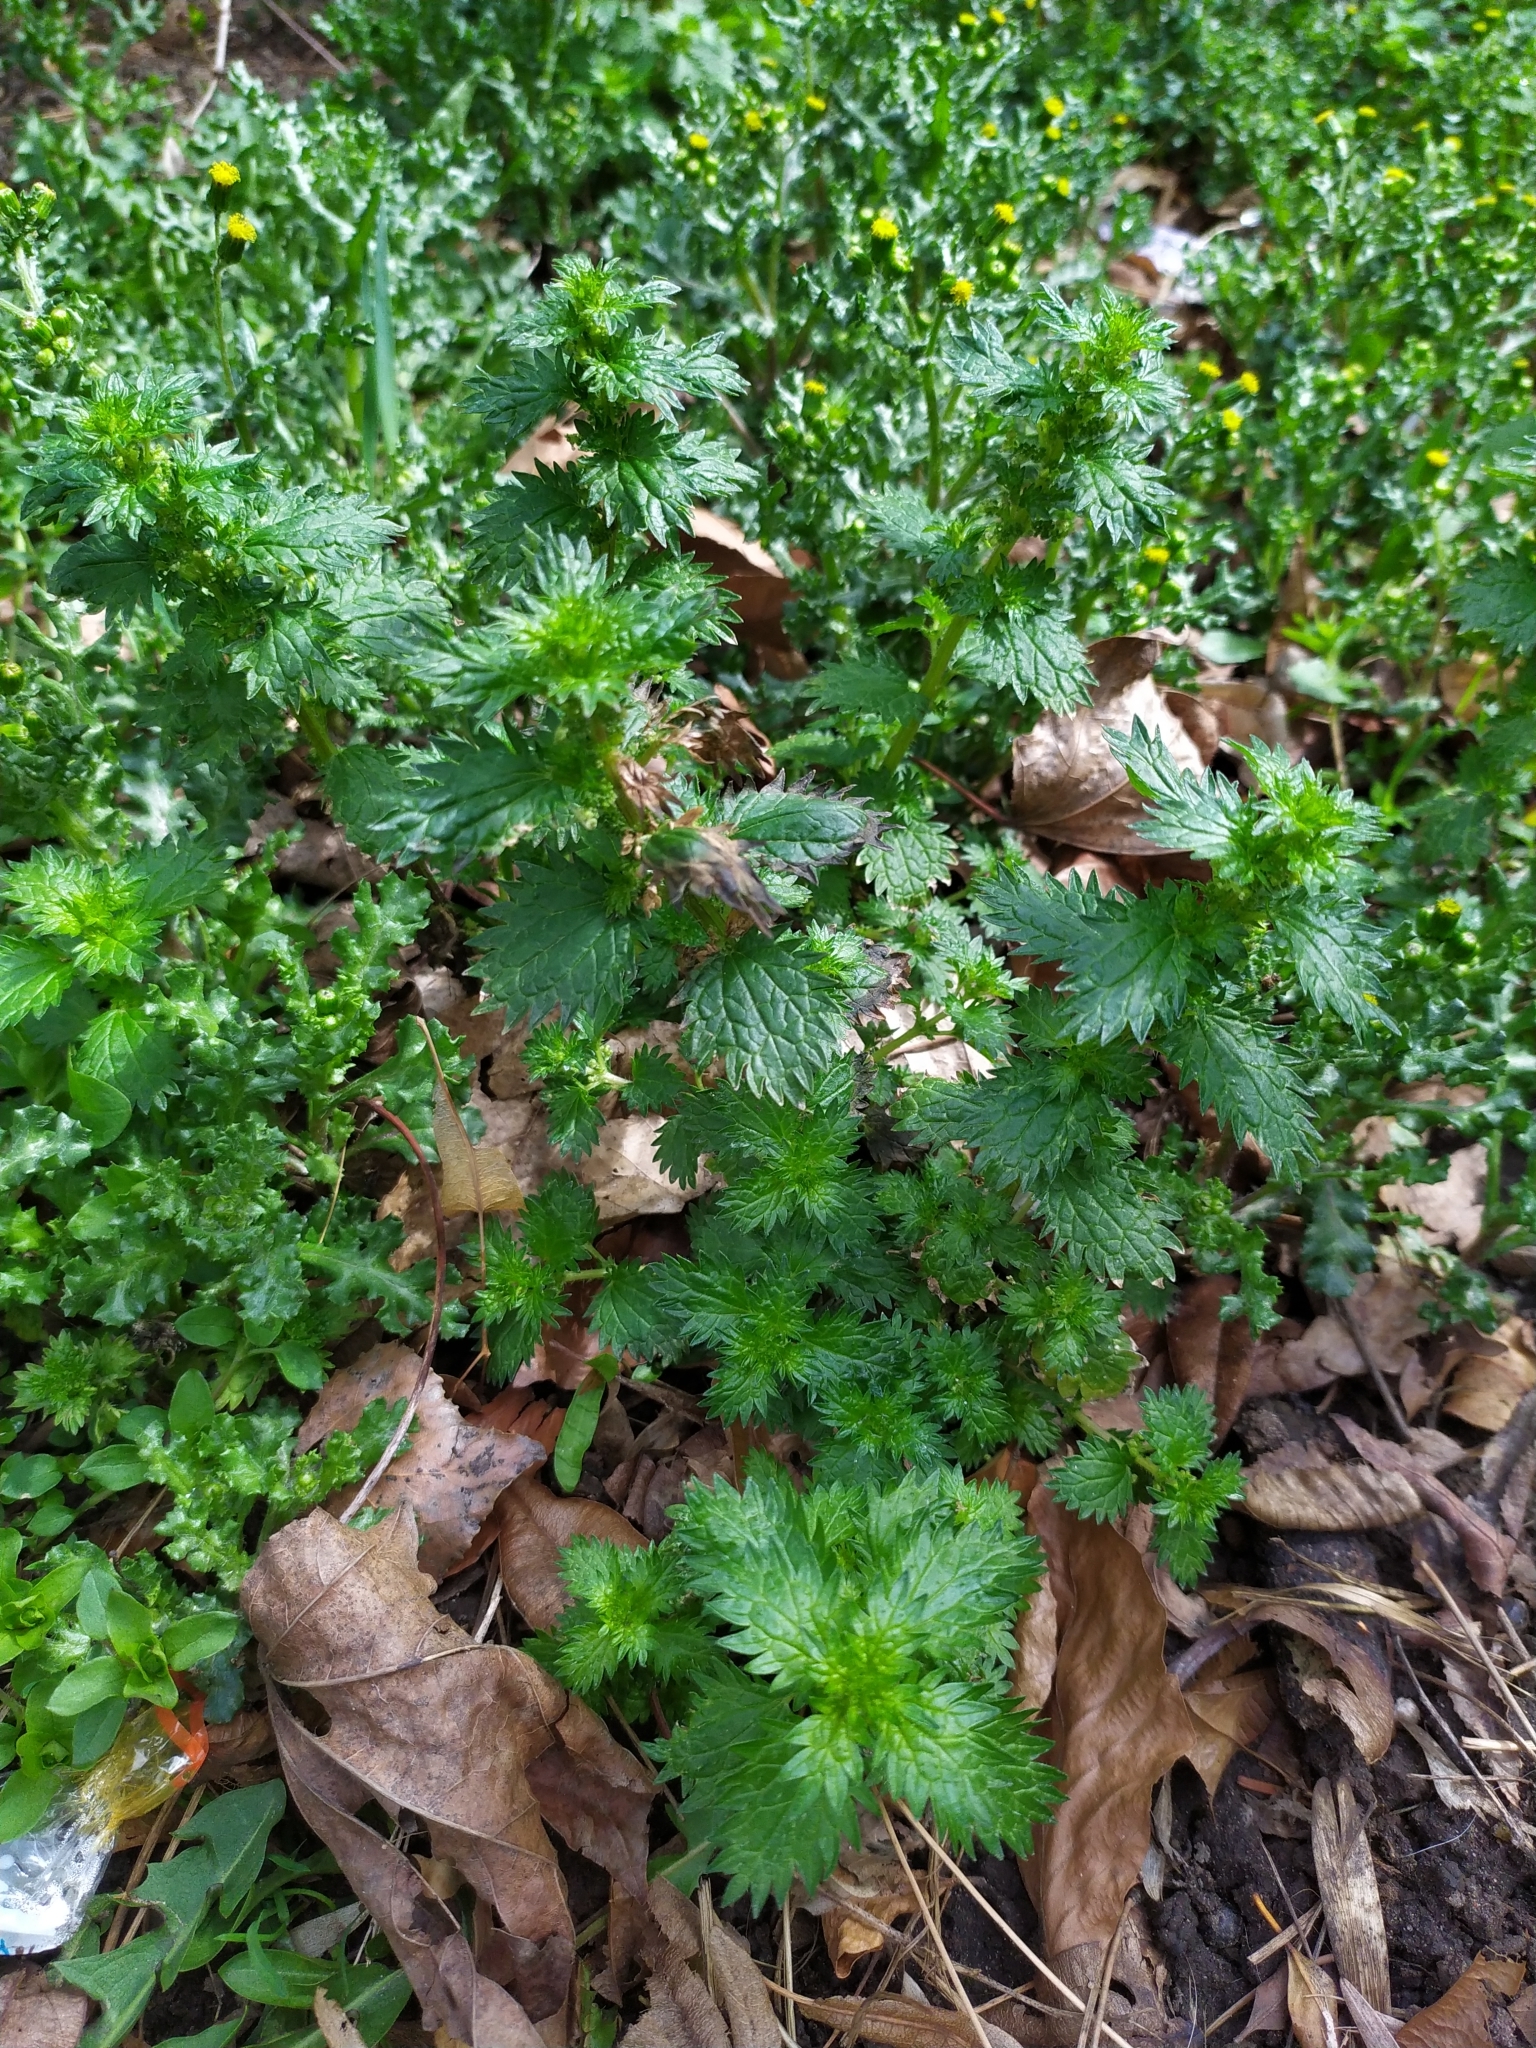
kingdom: Plantae
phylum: Tracheophyta
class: Magnoliopsida
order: Rosales
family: Urticaceae
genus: Urtica
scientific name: Urtica urens
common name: Dwarf nettle
